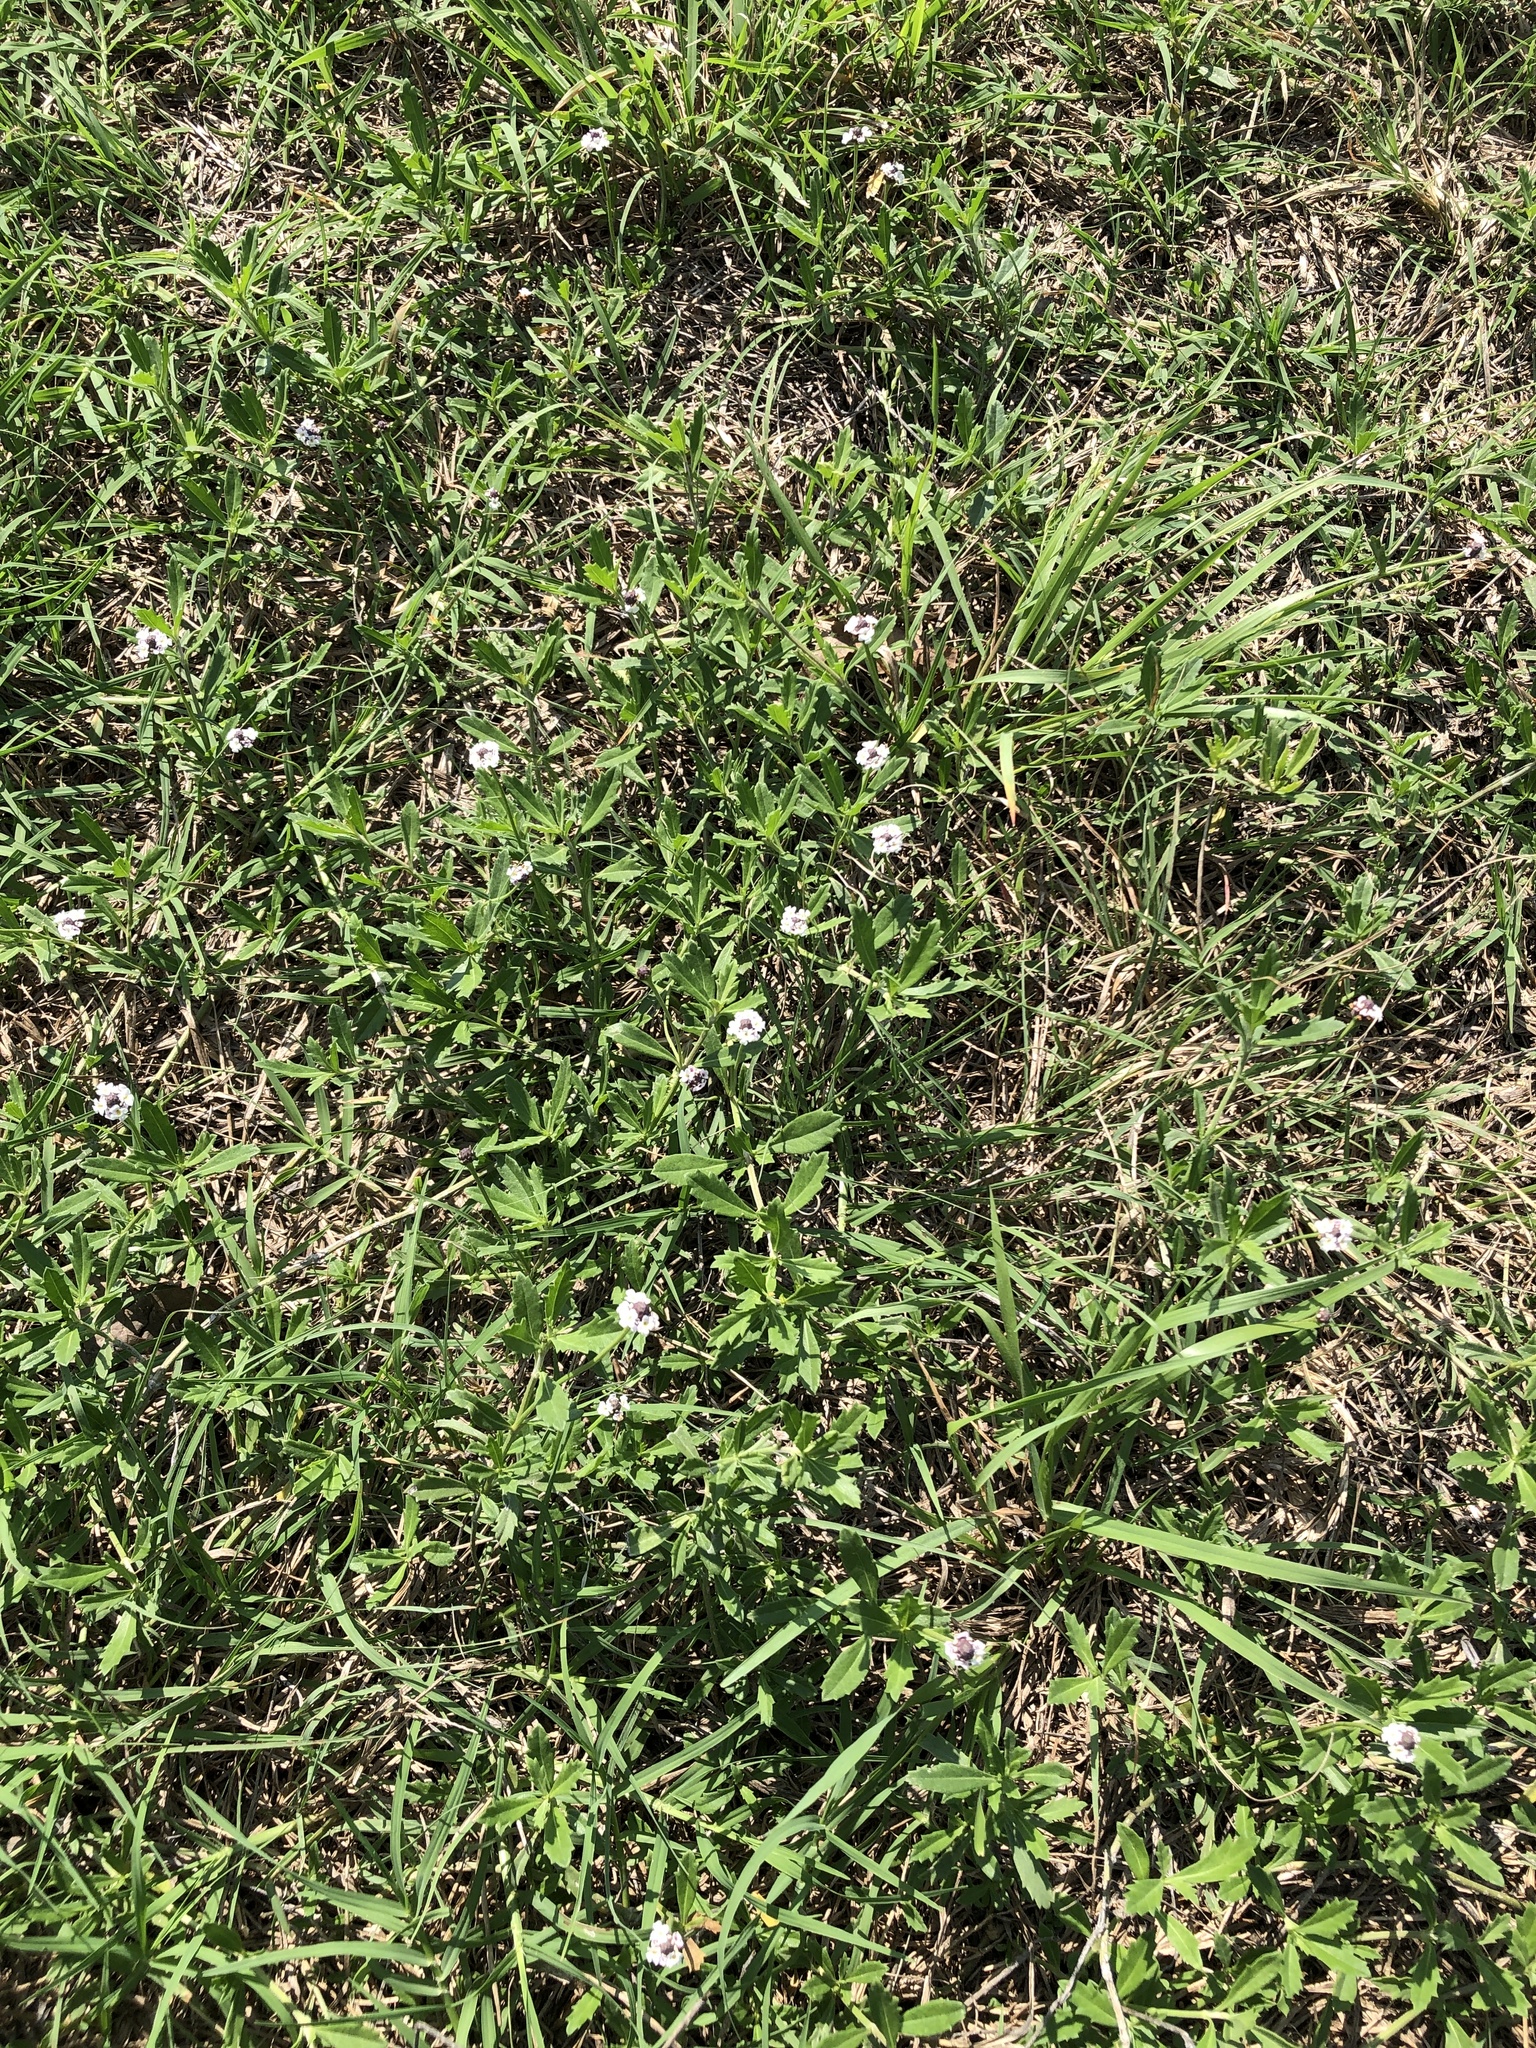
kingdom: Plantae
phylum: Tracheophyta
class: Magnoliopsida
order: Lamiales
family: Verbenaceae
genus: Phyla
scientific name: Phyla nodiflora
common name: Frogfruit
